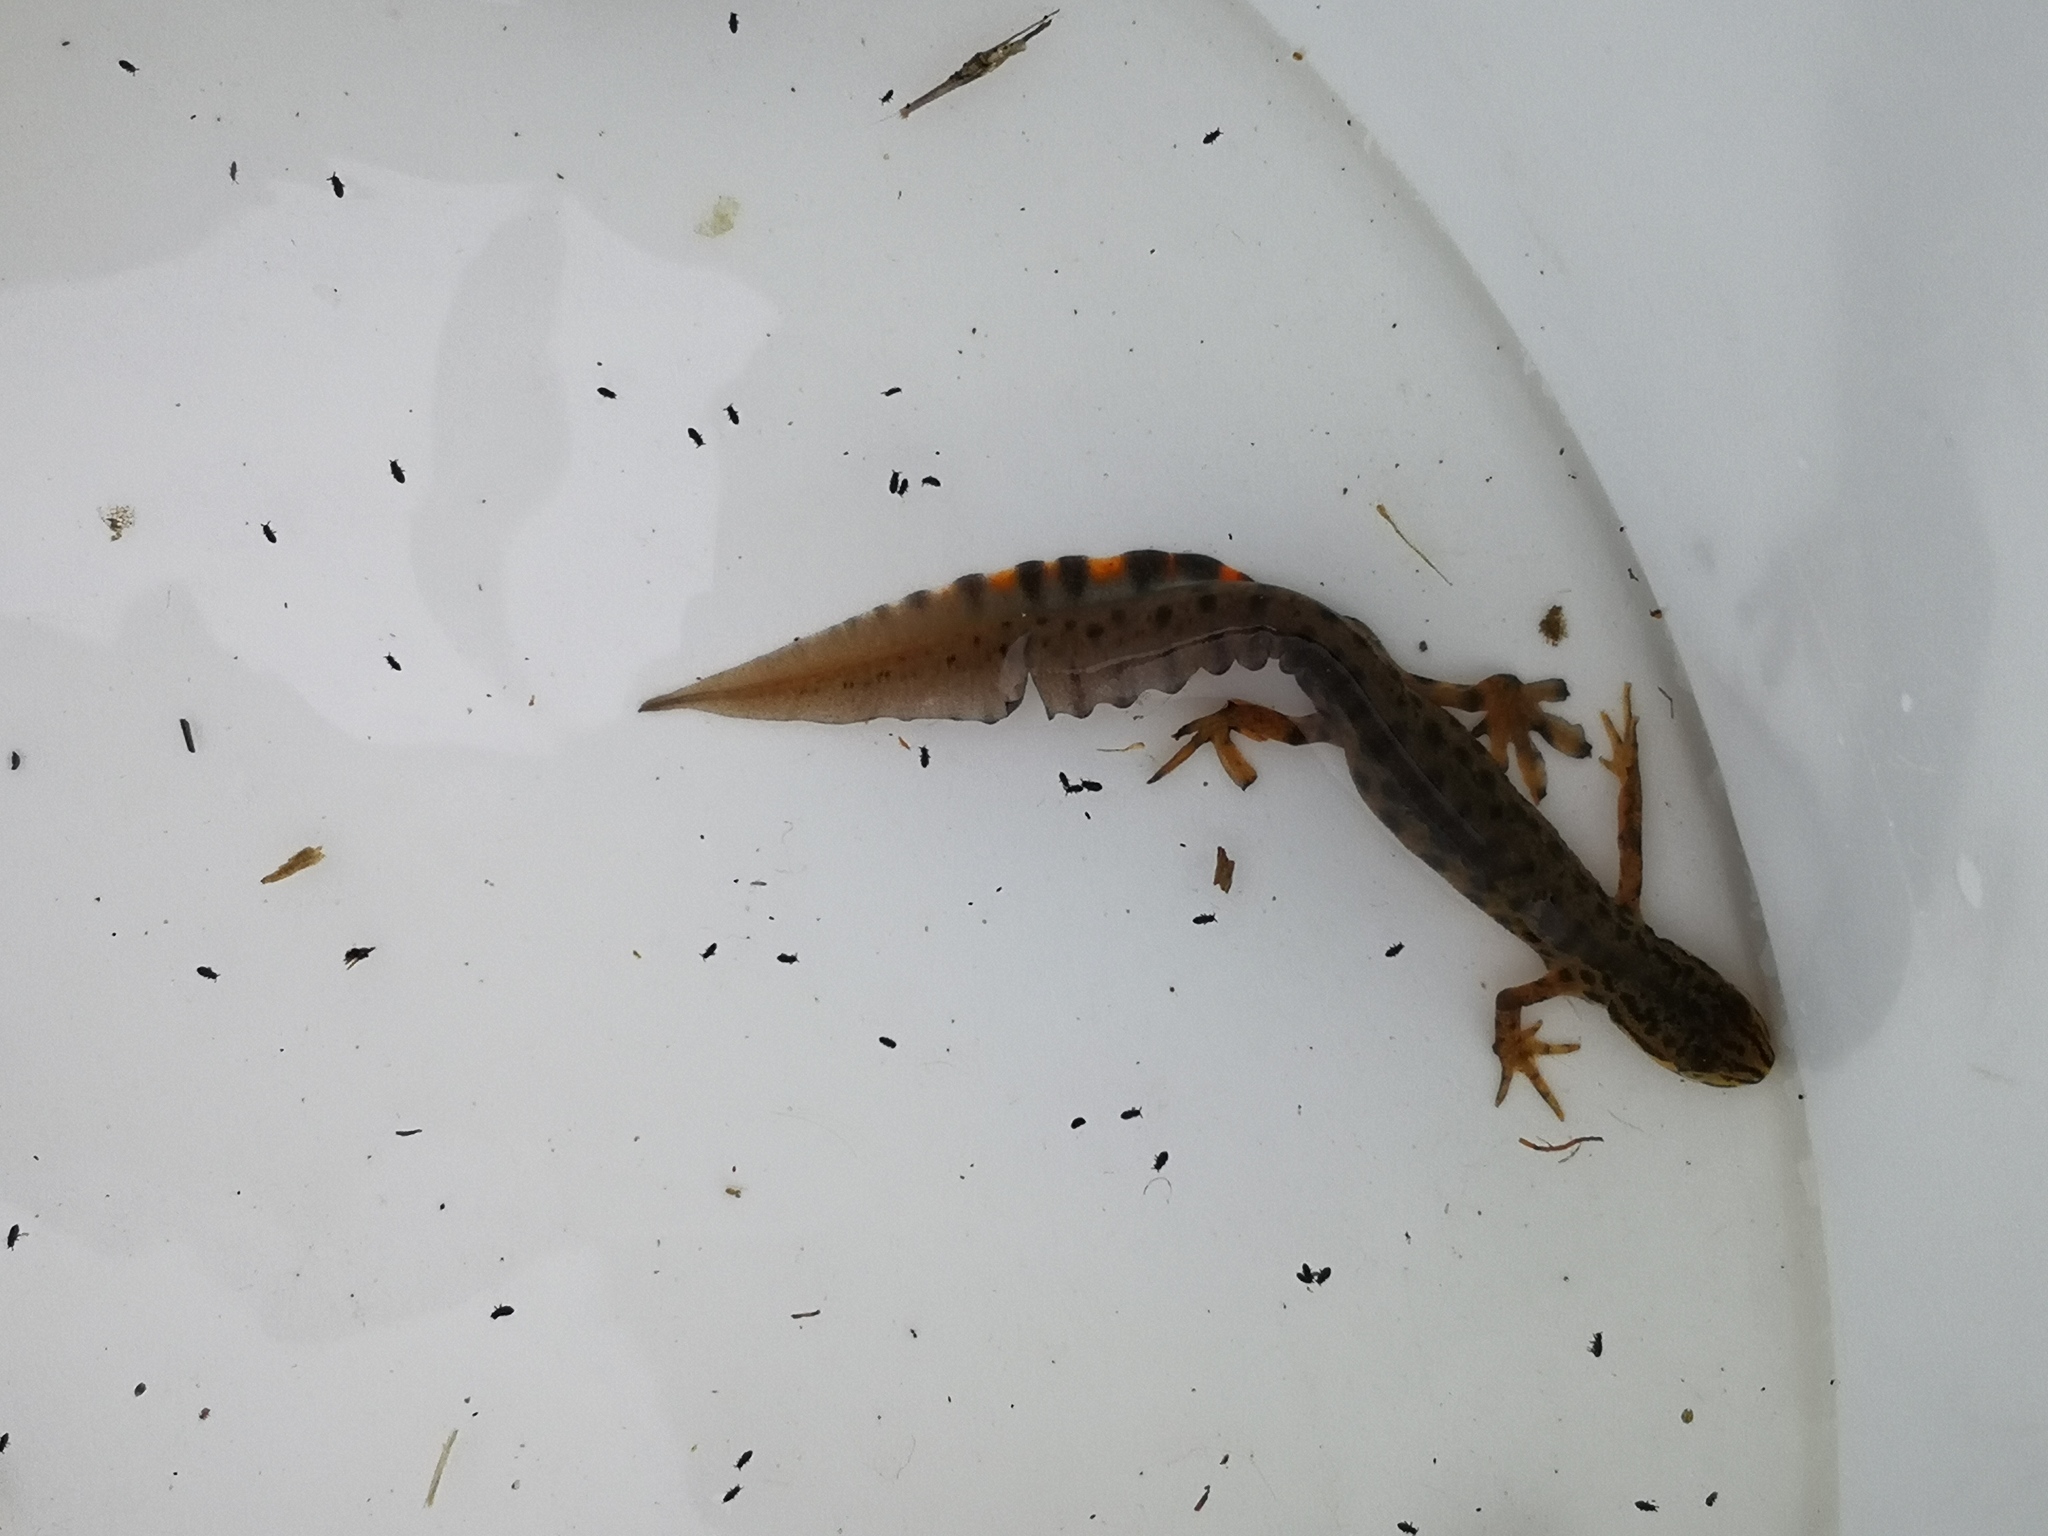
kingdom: Animalia
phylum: Chordata
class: Amphibia
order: Caudata
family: Salamandridae
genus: Lissotriton
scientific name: Lissotriton vulgaris
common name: Smooth newt
